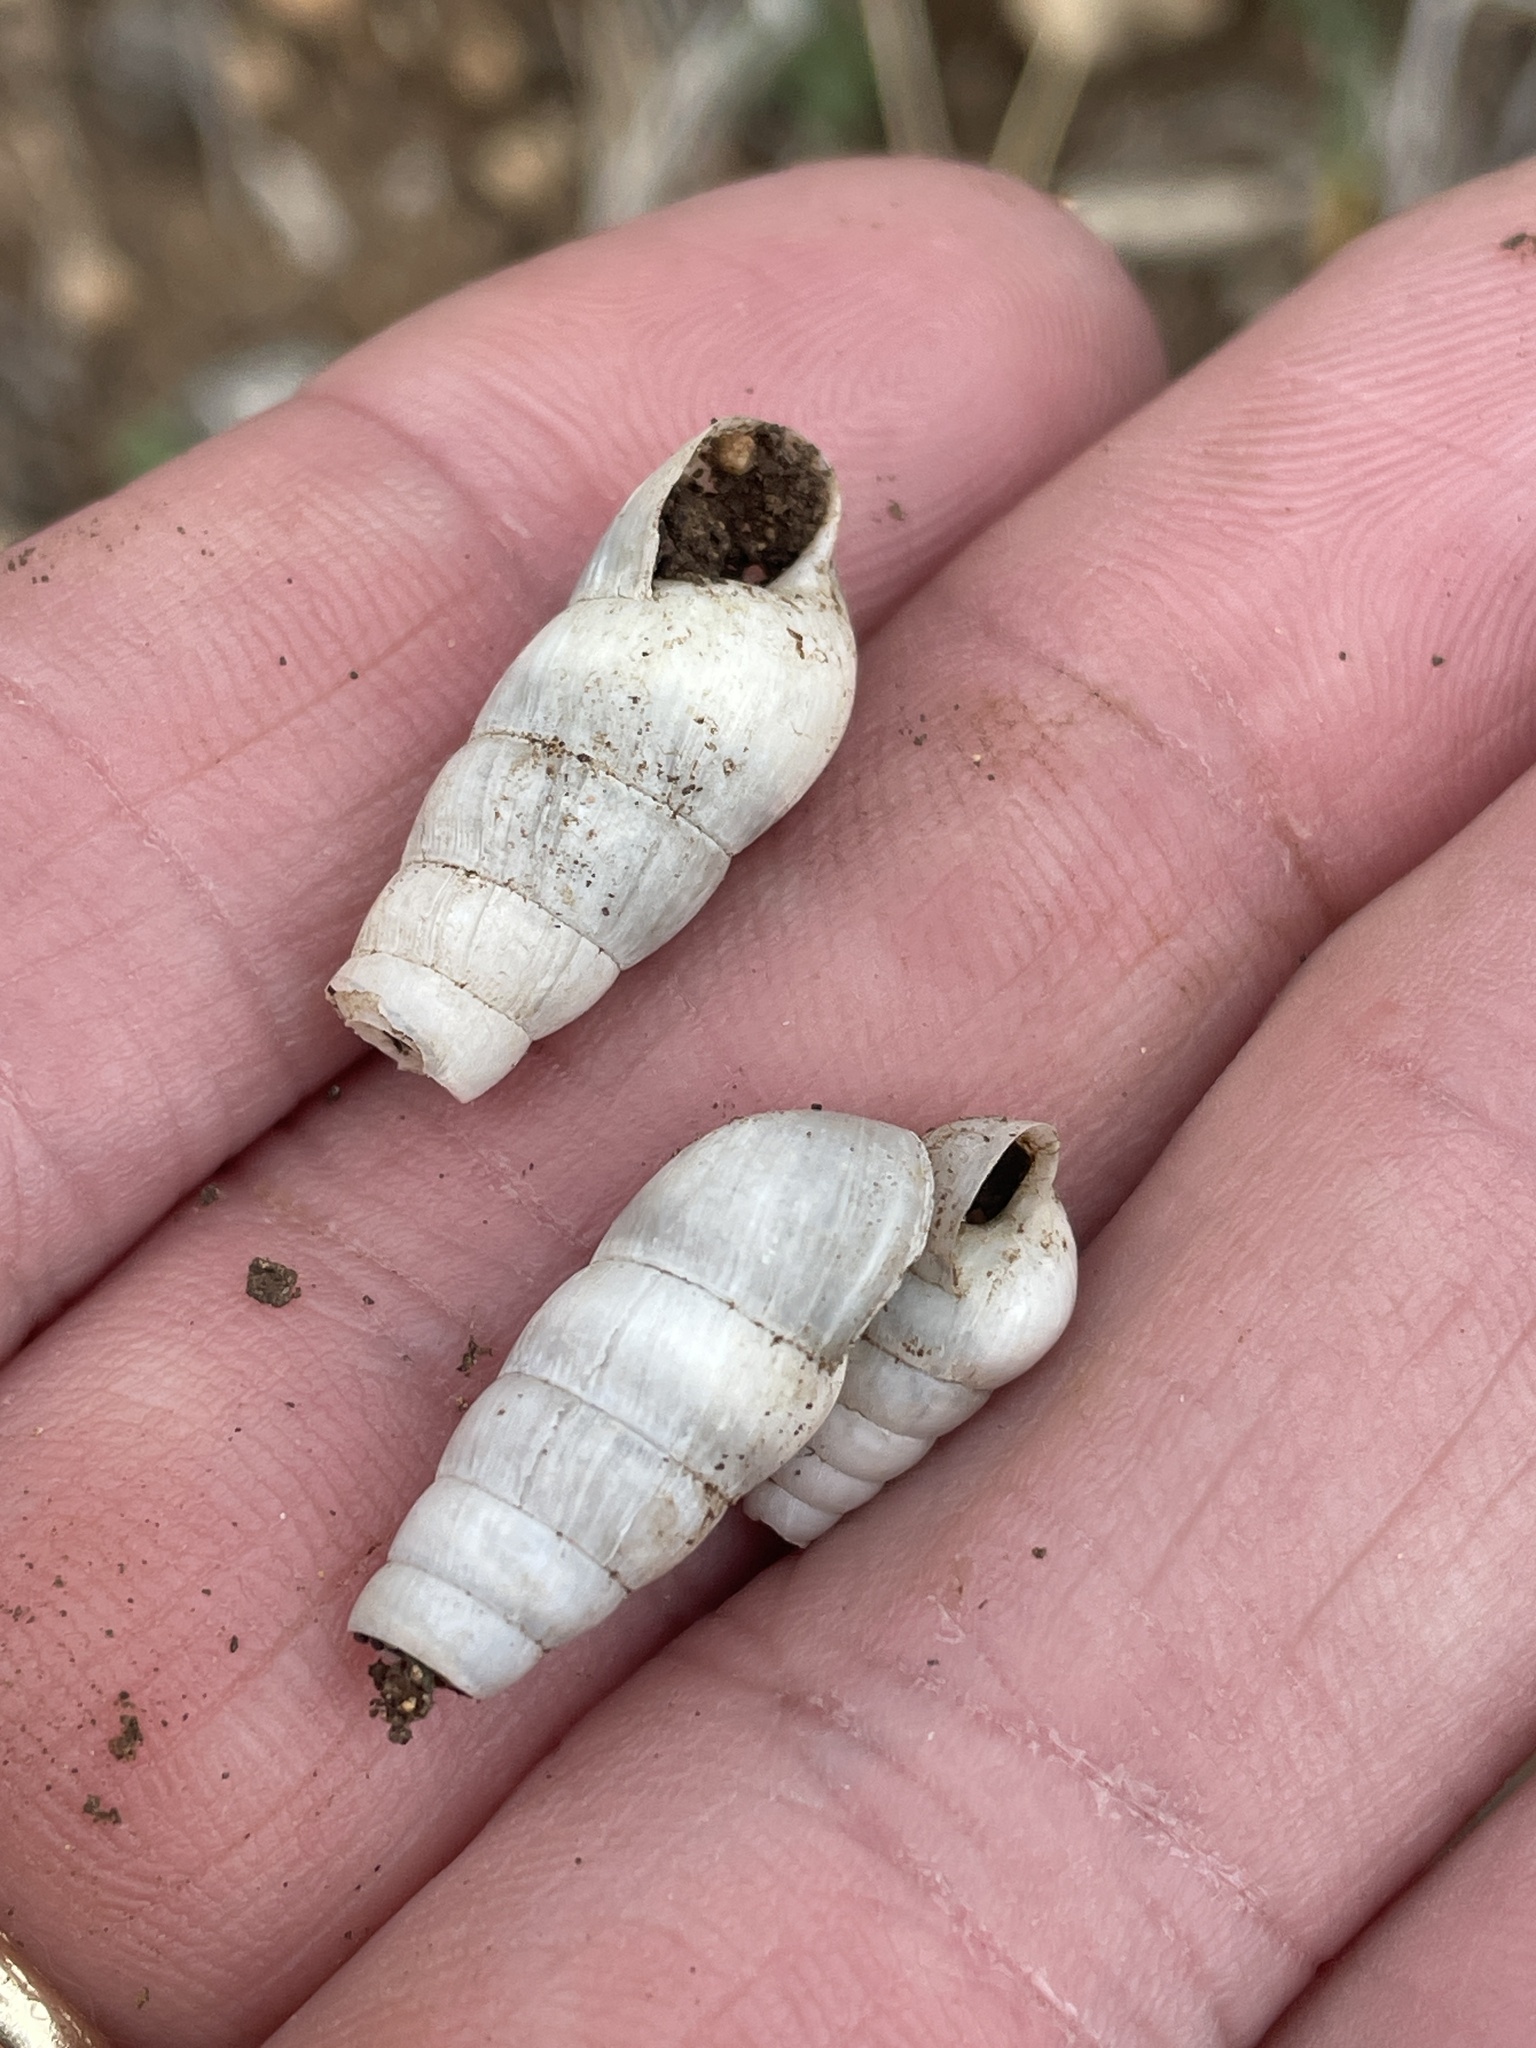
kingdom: Animalia
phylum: Mollusca
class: Gastropoda
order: Stylommatophora
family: Achatinidae
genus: Rumina
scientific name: Rumina decollata
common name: Decollate snail
